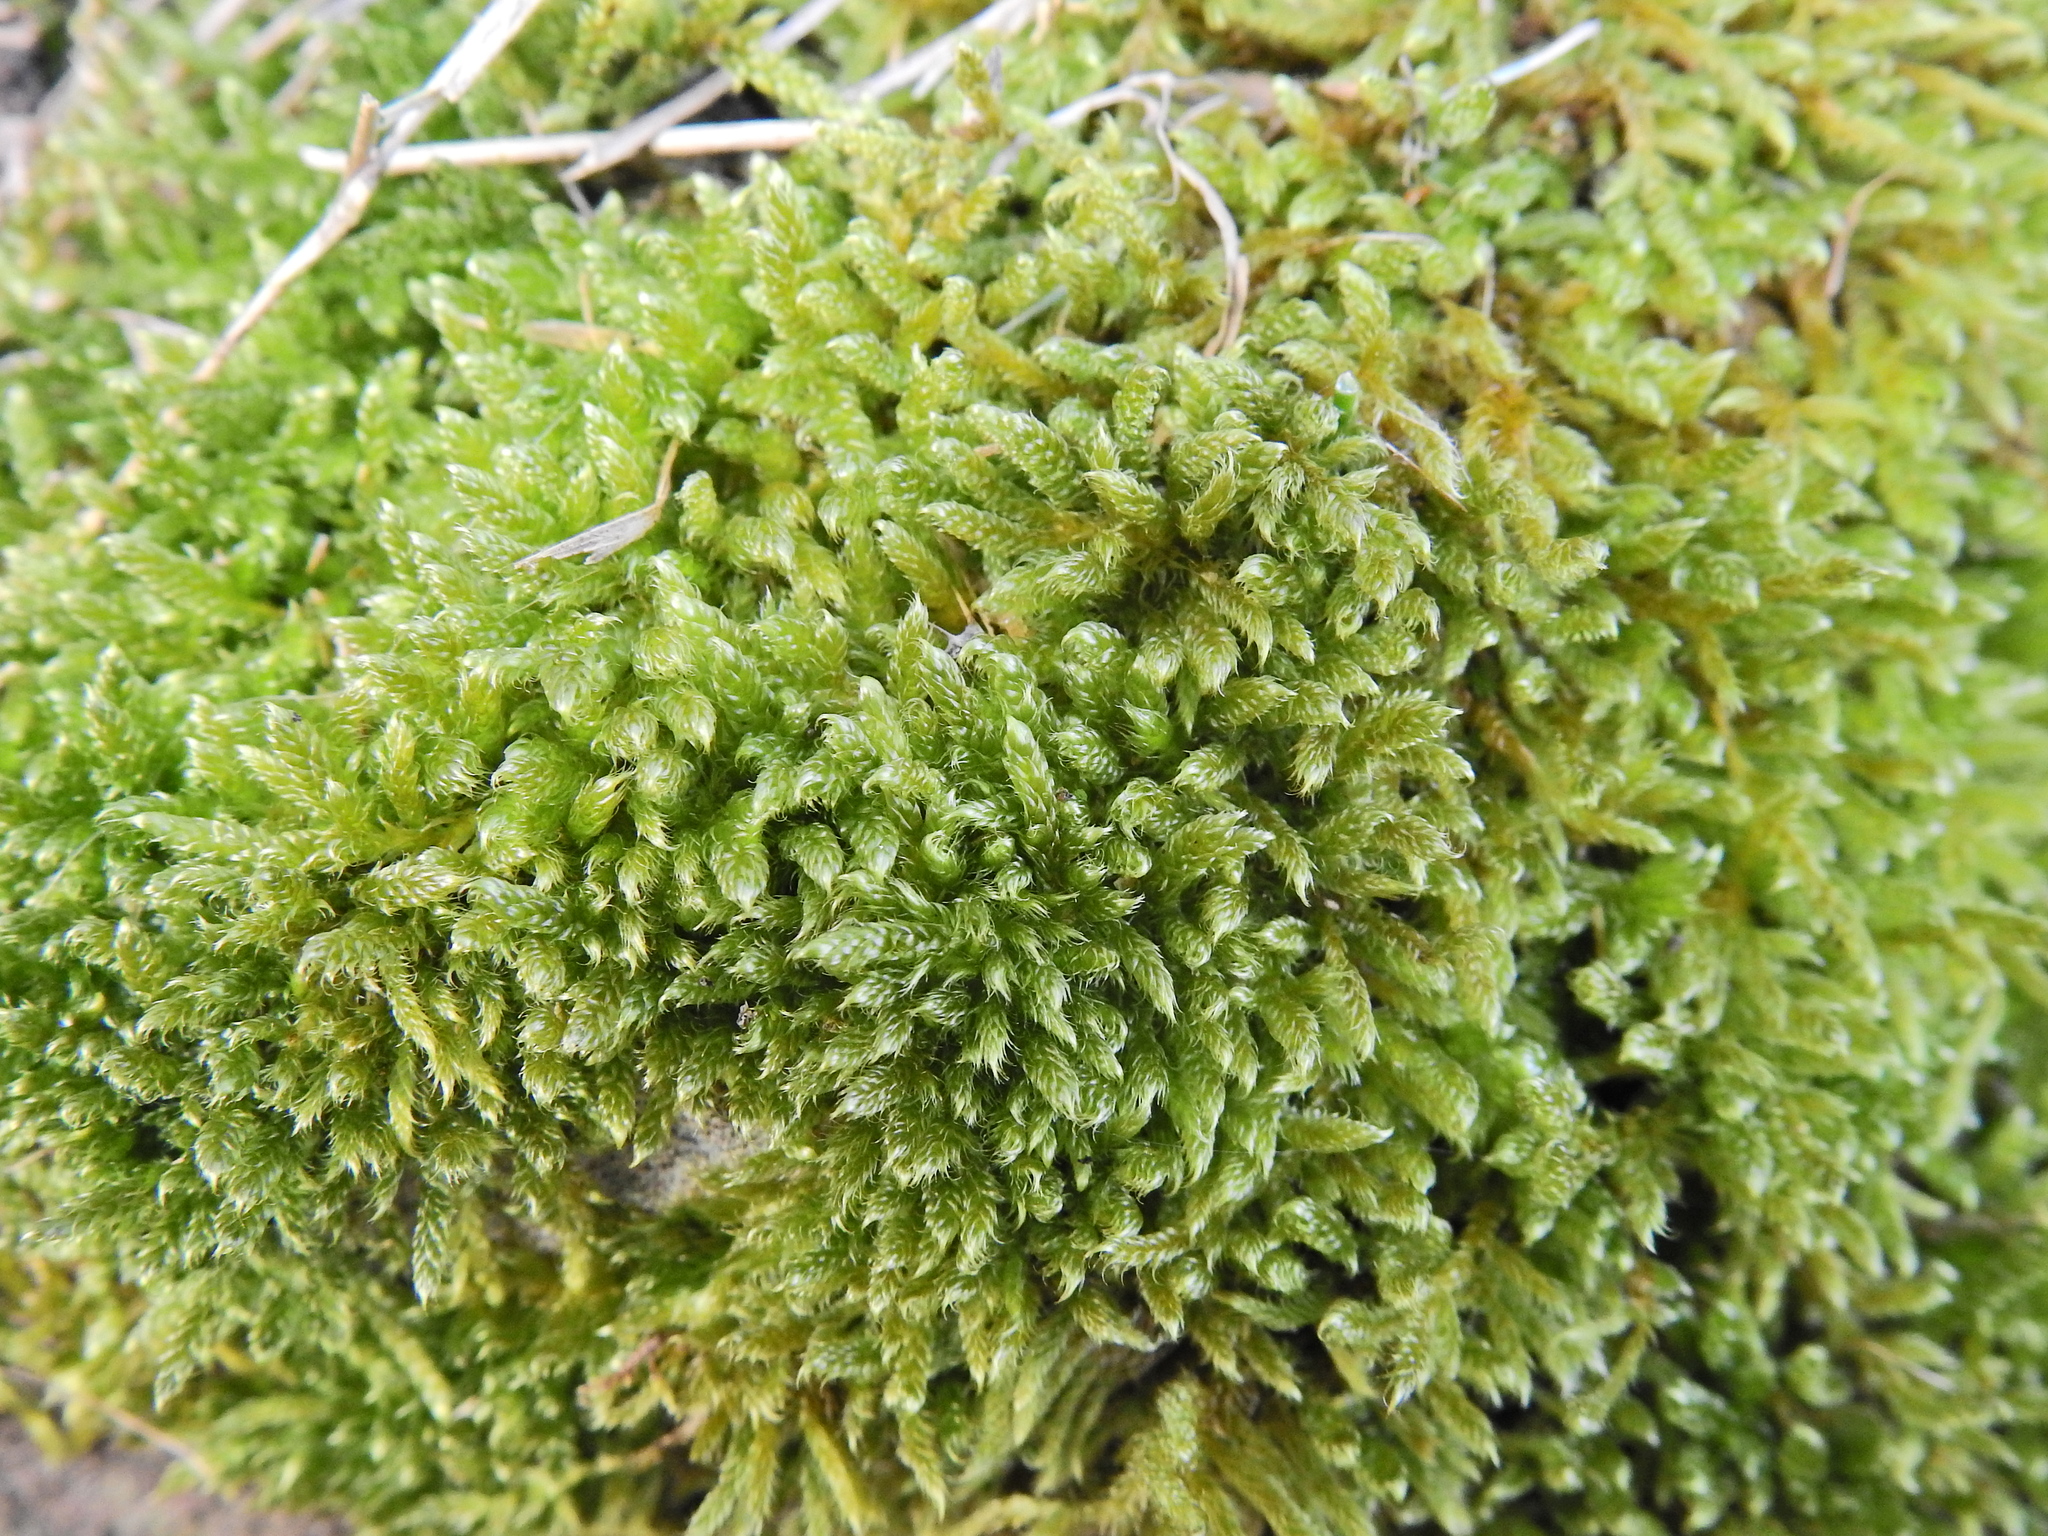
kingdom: Plantae
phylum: Bryophyta
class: Bryopsida
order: Hypnales
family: Hypnaceae
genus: Hypnum
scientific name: Hypnum cupressiforme
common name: Cypress-leaved plait-moss
